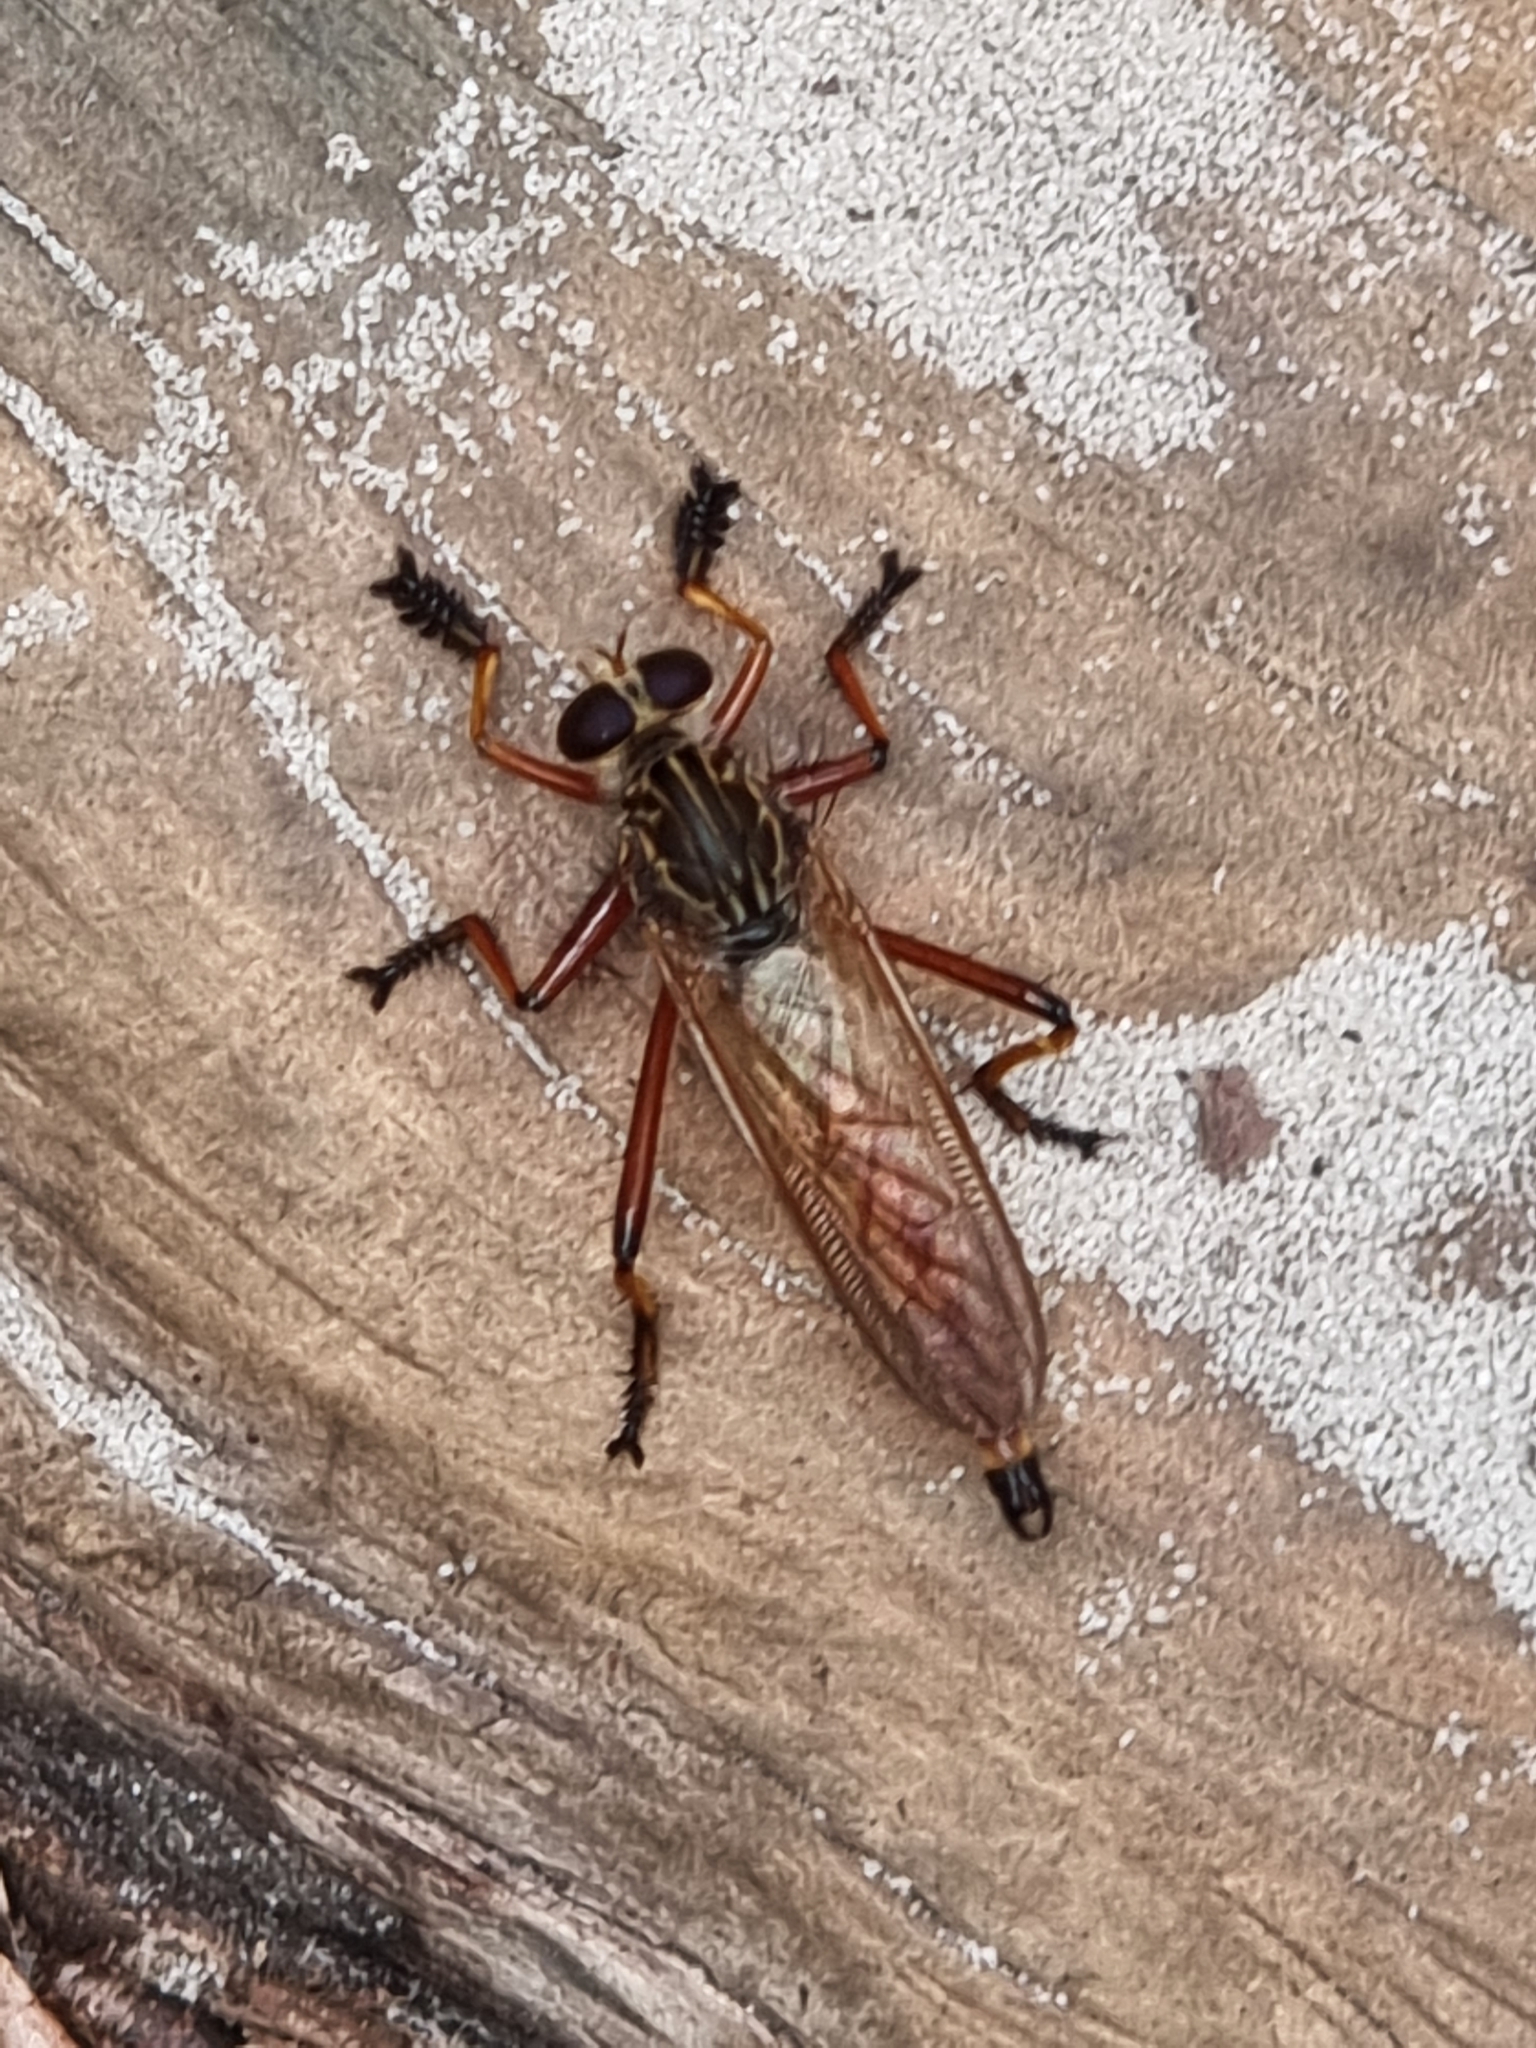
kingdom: Animalia
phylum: Arthropoda
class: Insecta
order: Diptera
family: Asilidae
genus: Colepia
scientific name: Colepia cultripes
